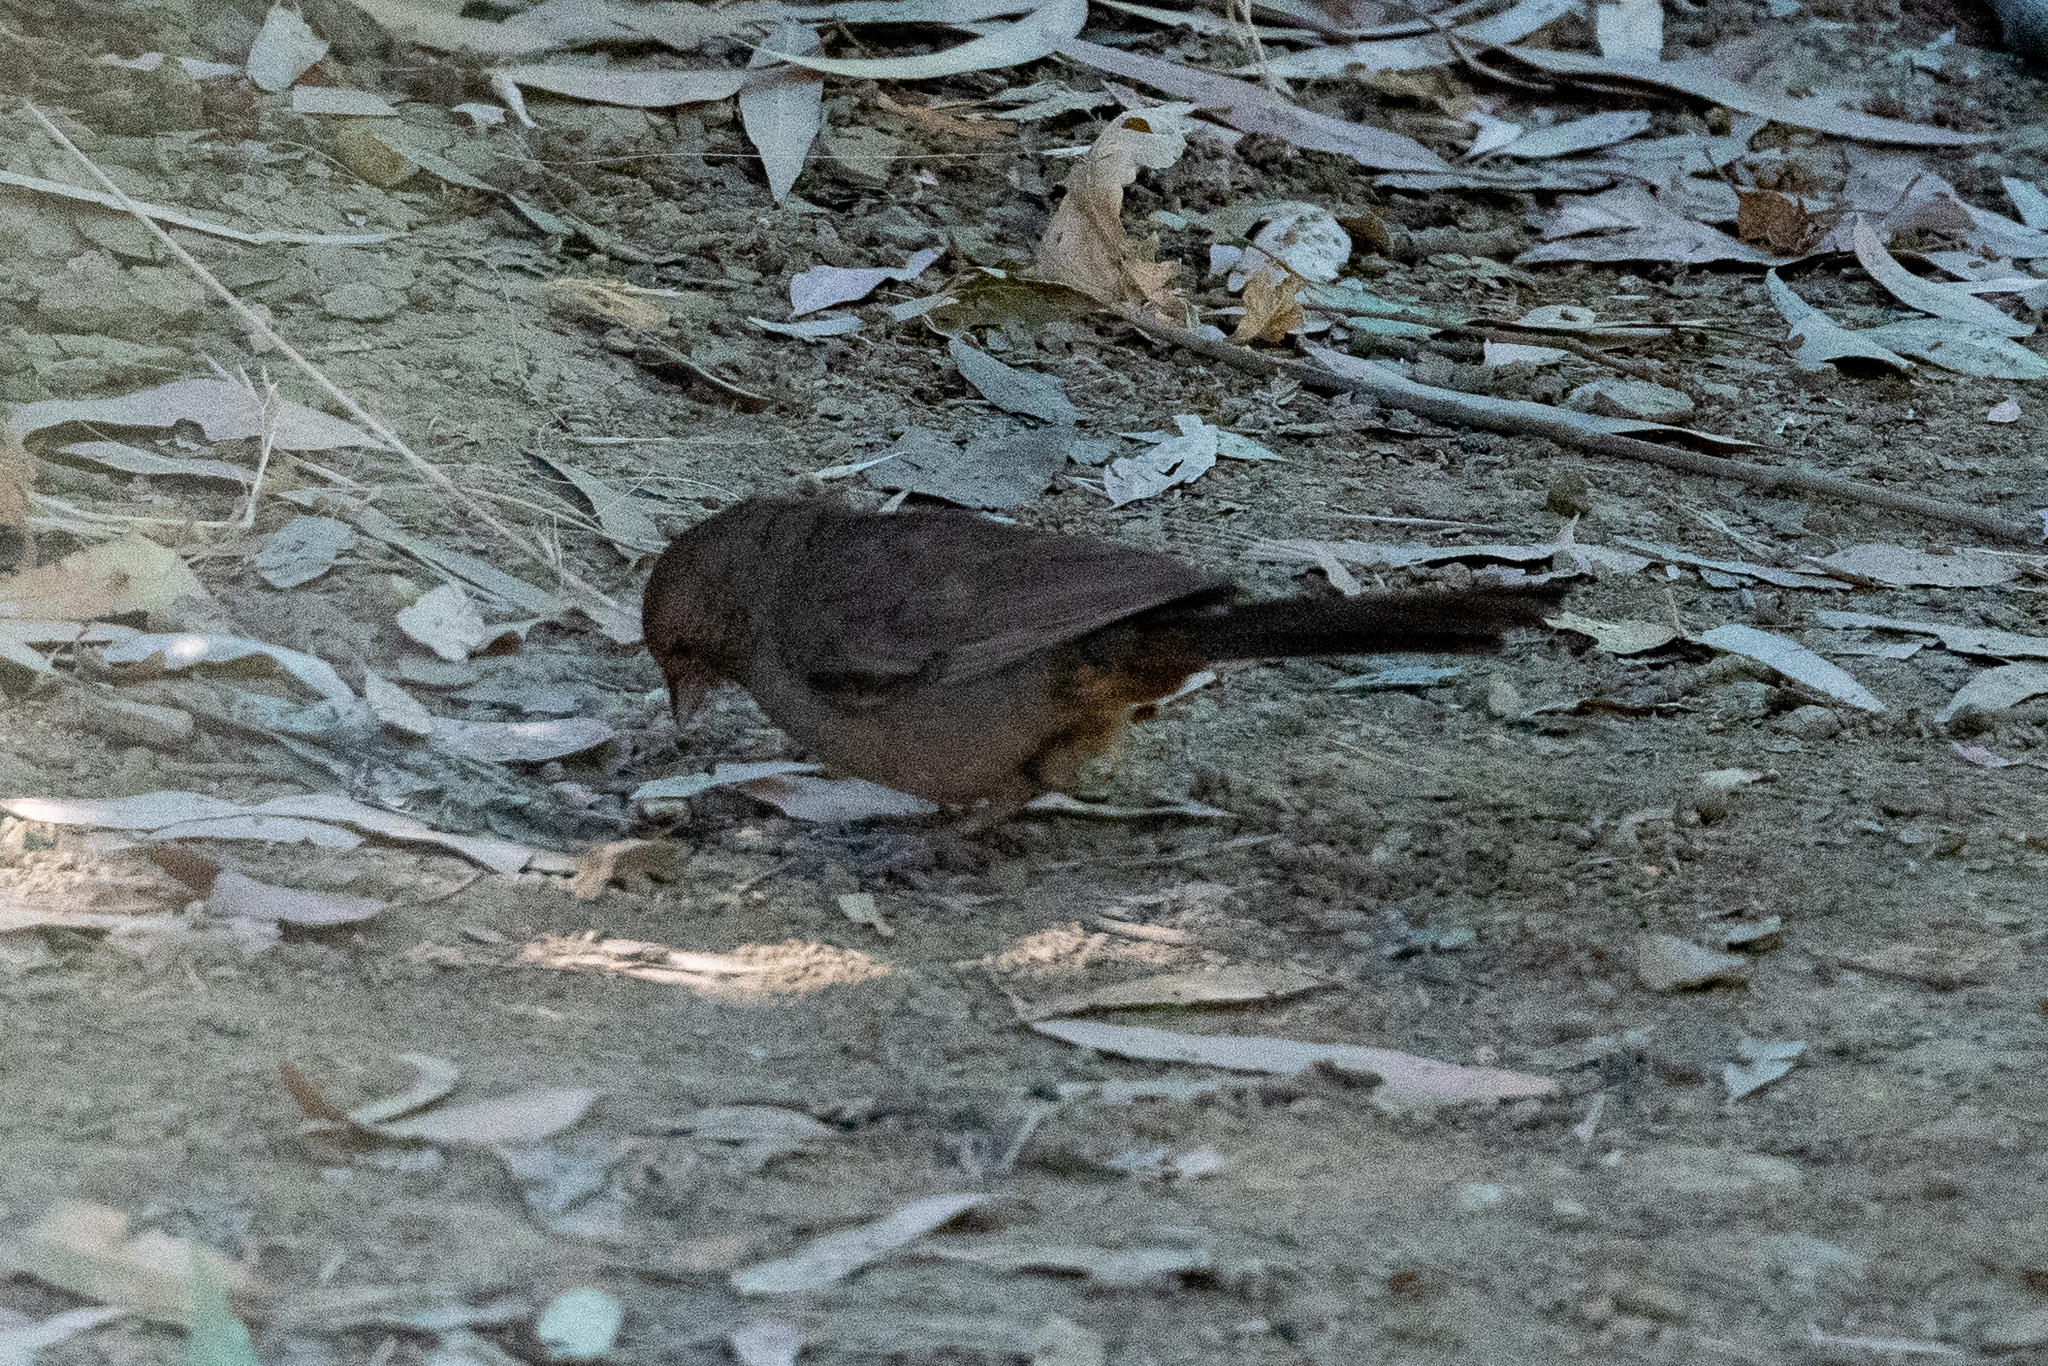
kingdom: Animalia
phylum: Chordata
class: Aves
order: Passeriformes
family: Passerellidae
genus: Melozone
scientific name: Melozone crissalis
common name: California towhee
